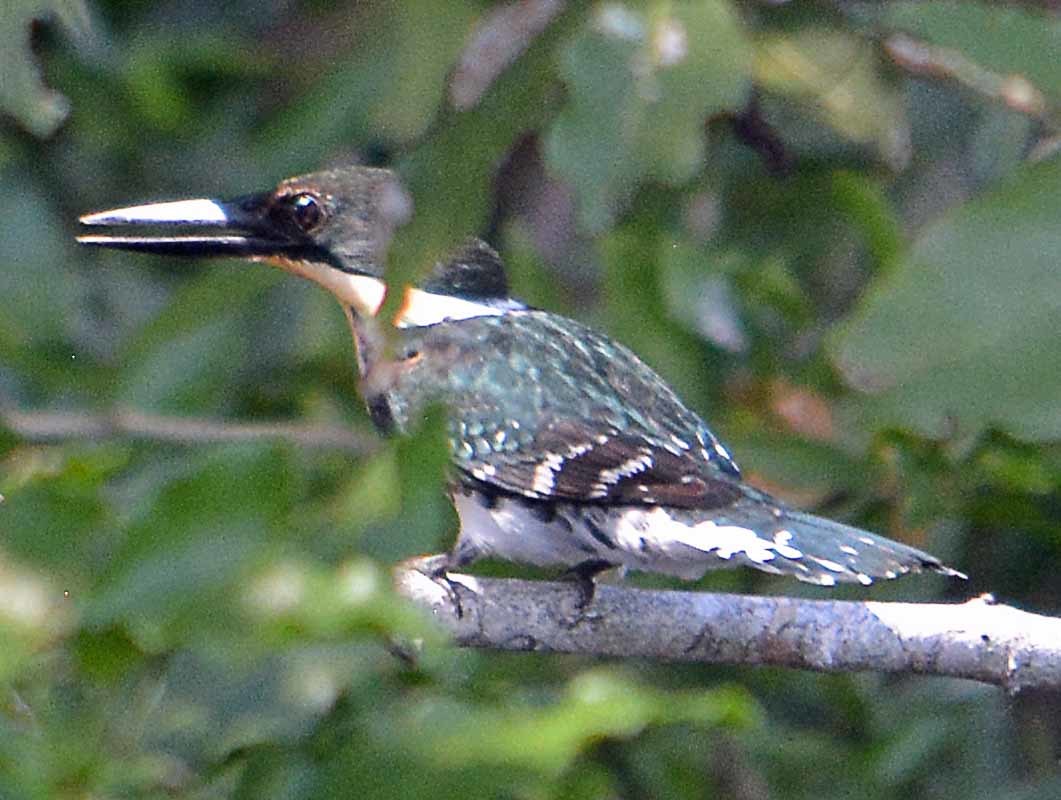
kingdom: Animalia
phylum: Chordata
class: Aves
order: Coraciiformes
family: Alcedinidae
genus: Chloroceryle
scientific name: Chloroceryle americana
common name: Green kingfisher
